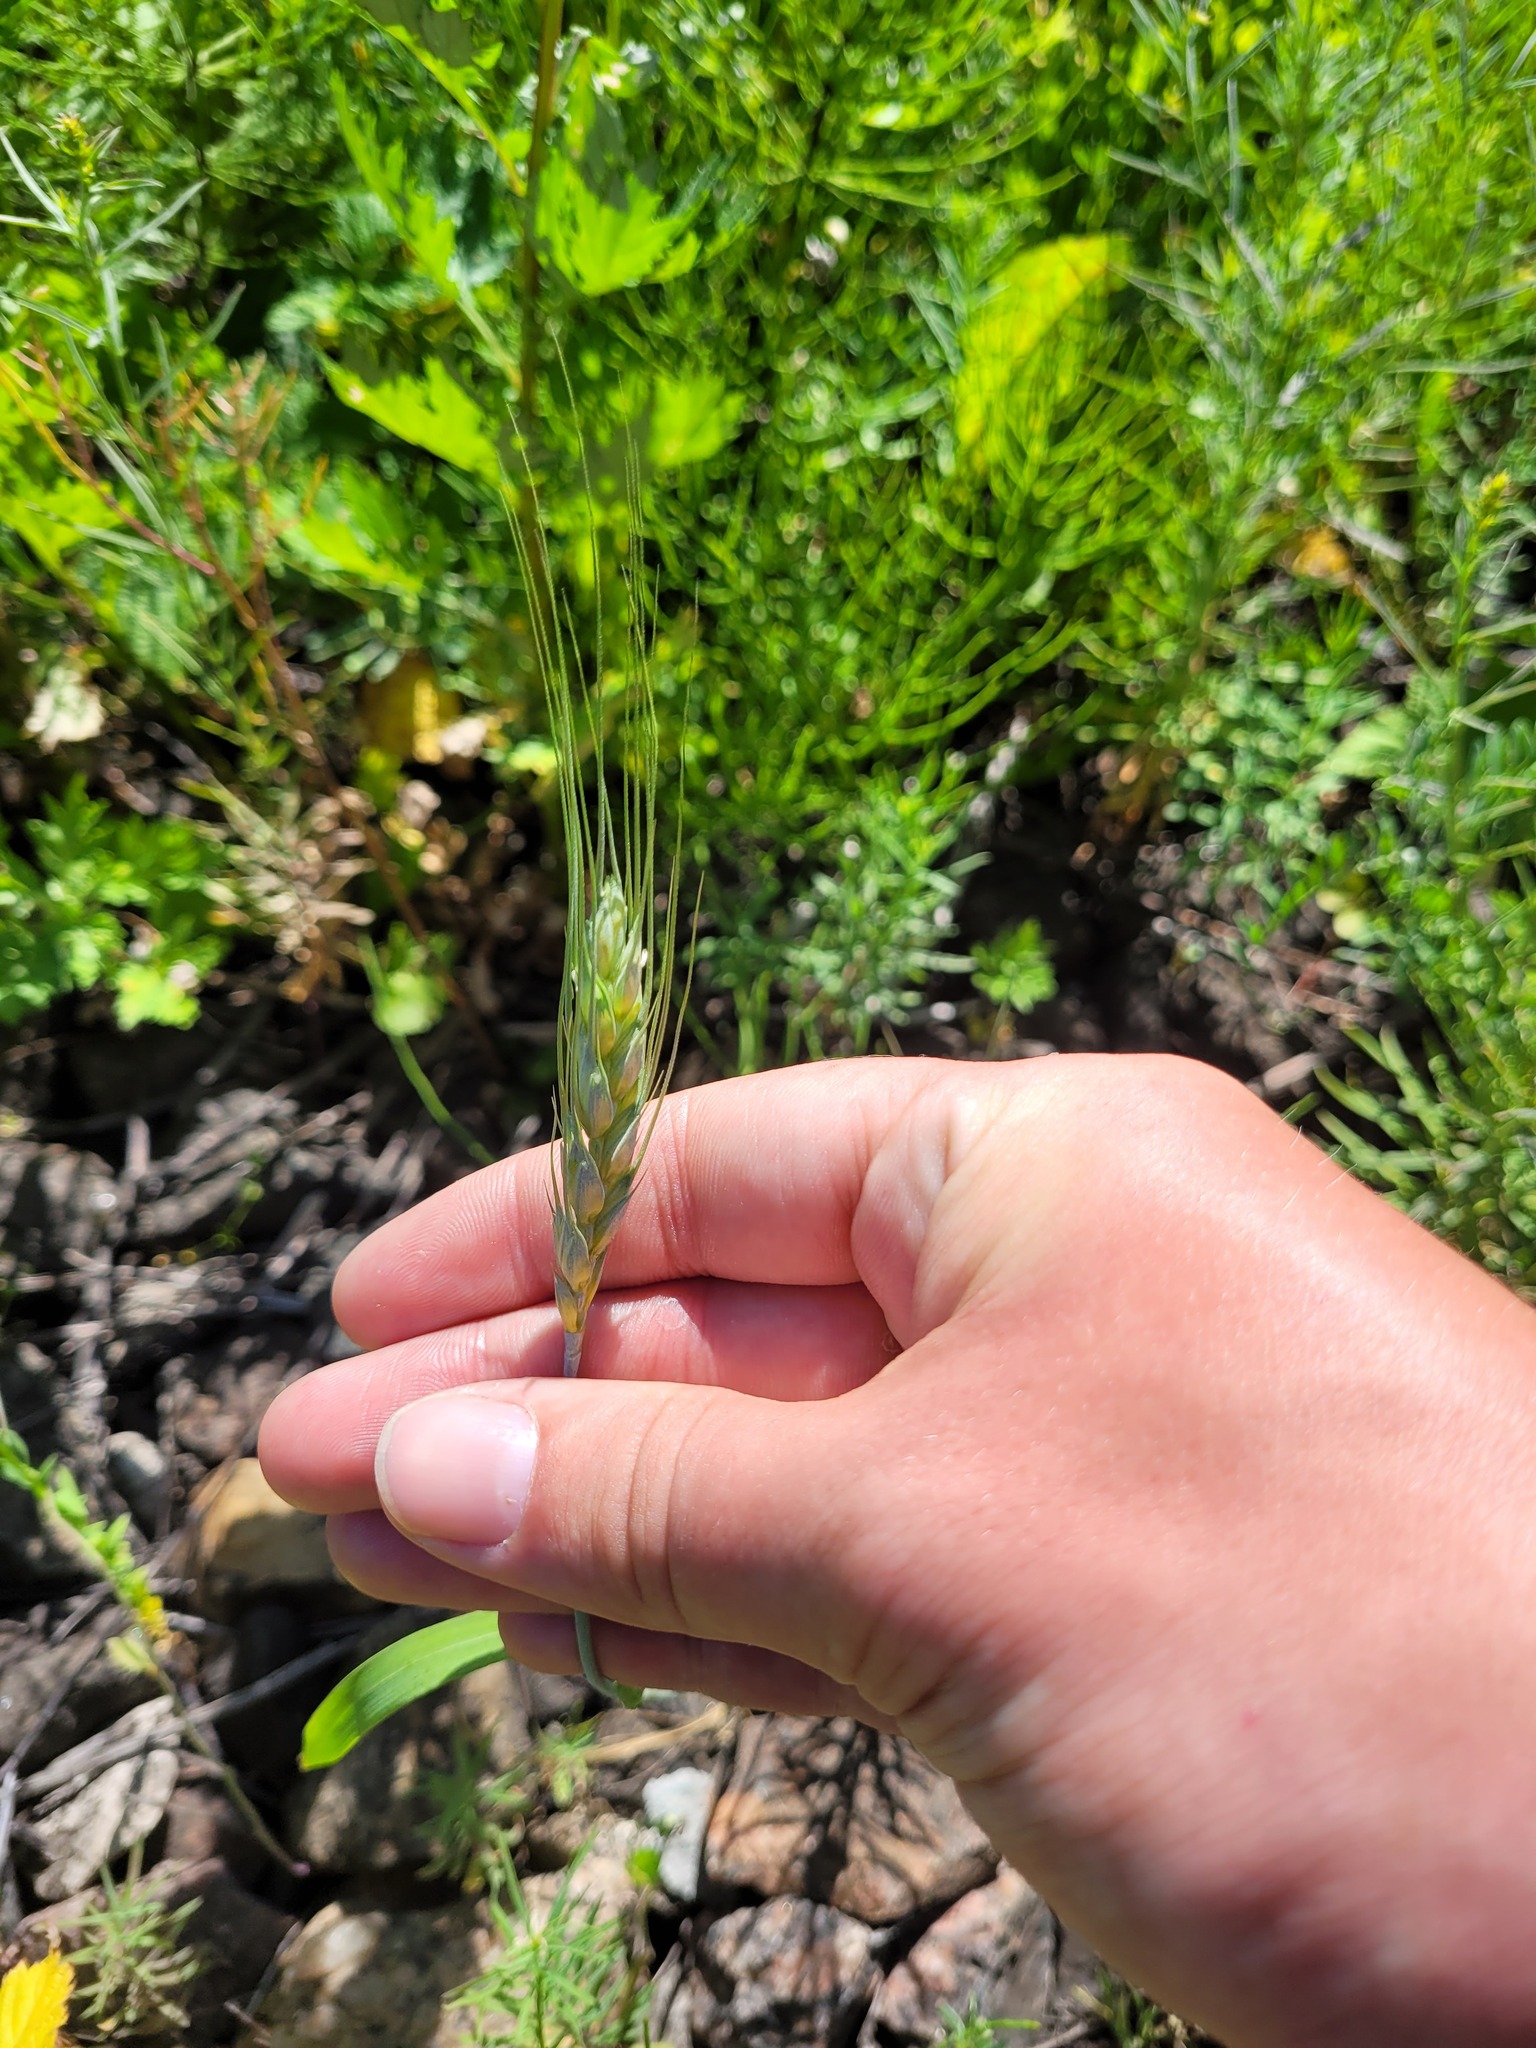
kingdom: Plantae
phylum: Tracheophyta
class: Liliopsida
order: Poales
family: Poaceae
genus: Triticum
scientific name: Triticum aestivum
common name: Common wheat
